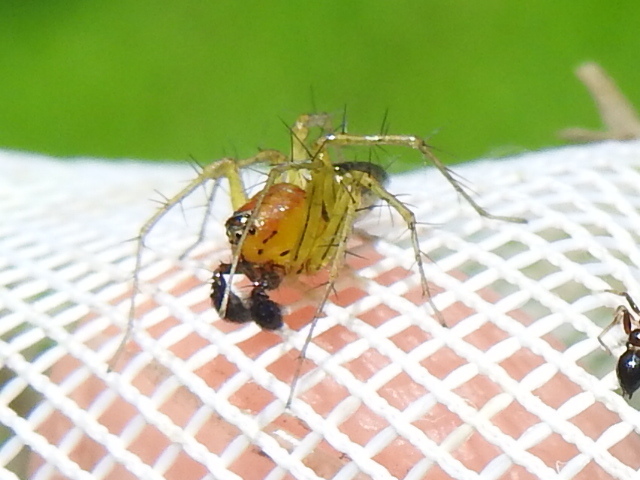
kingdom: Animalia
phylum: Arthropoda
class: Arachnida
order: Araneae
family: Oxyopidae
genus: Oxyopes
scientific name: Oxyopes salticus
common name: Lynx spiders
